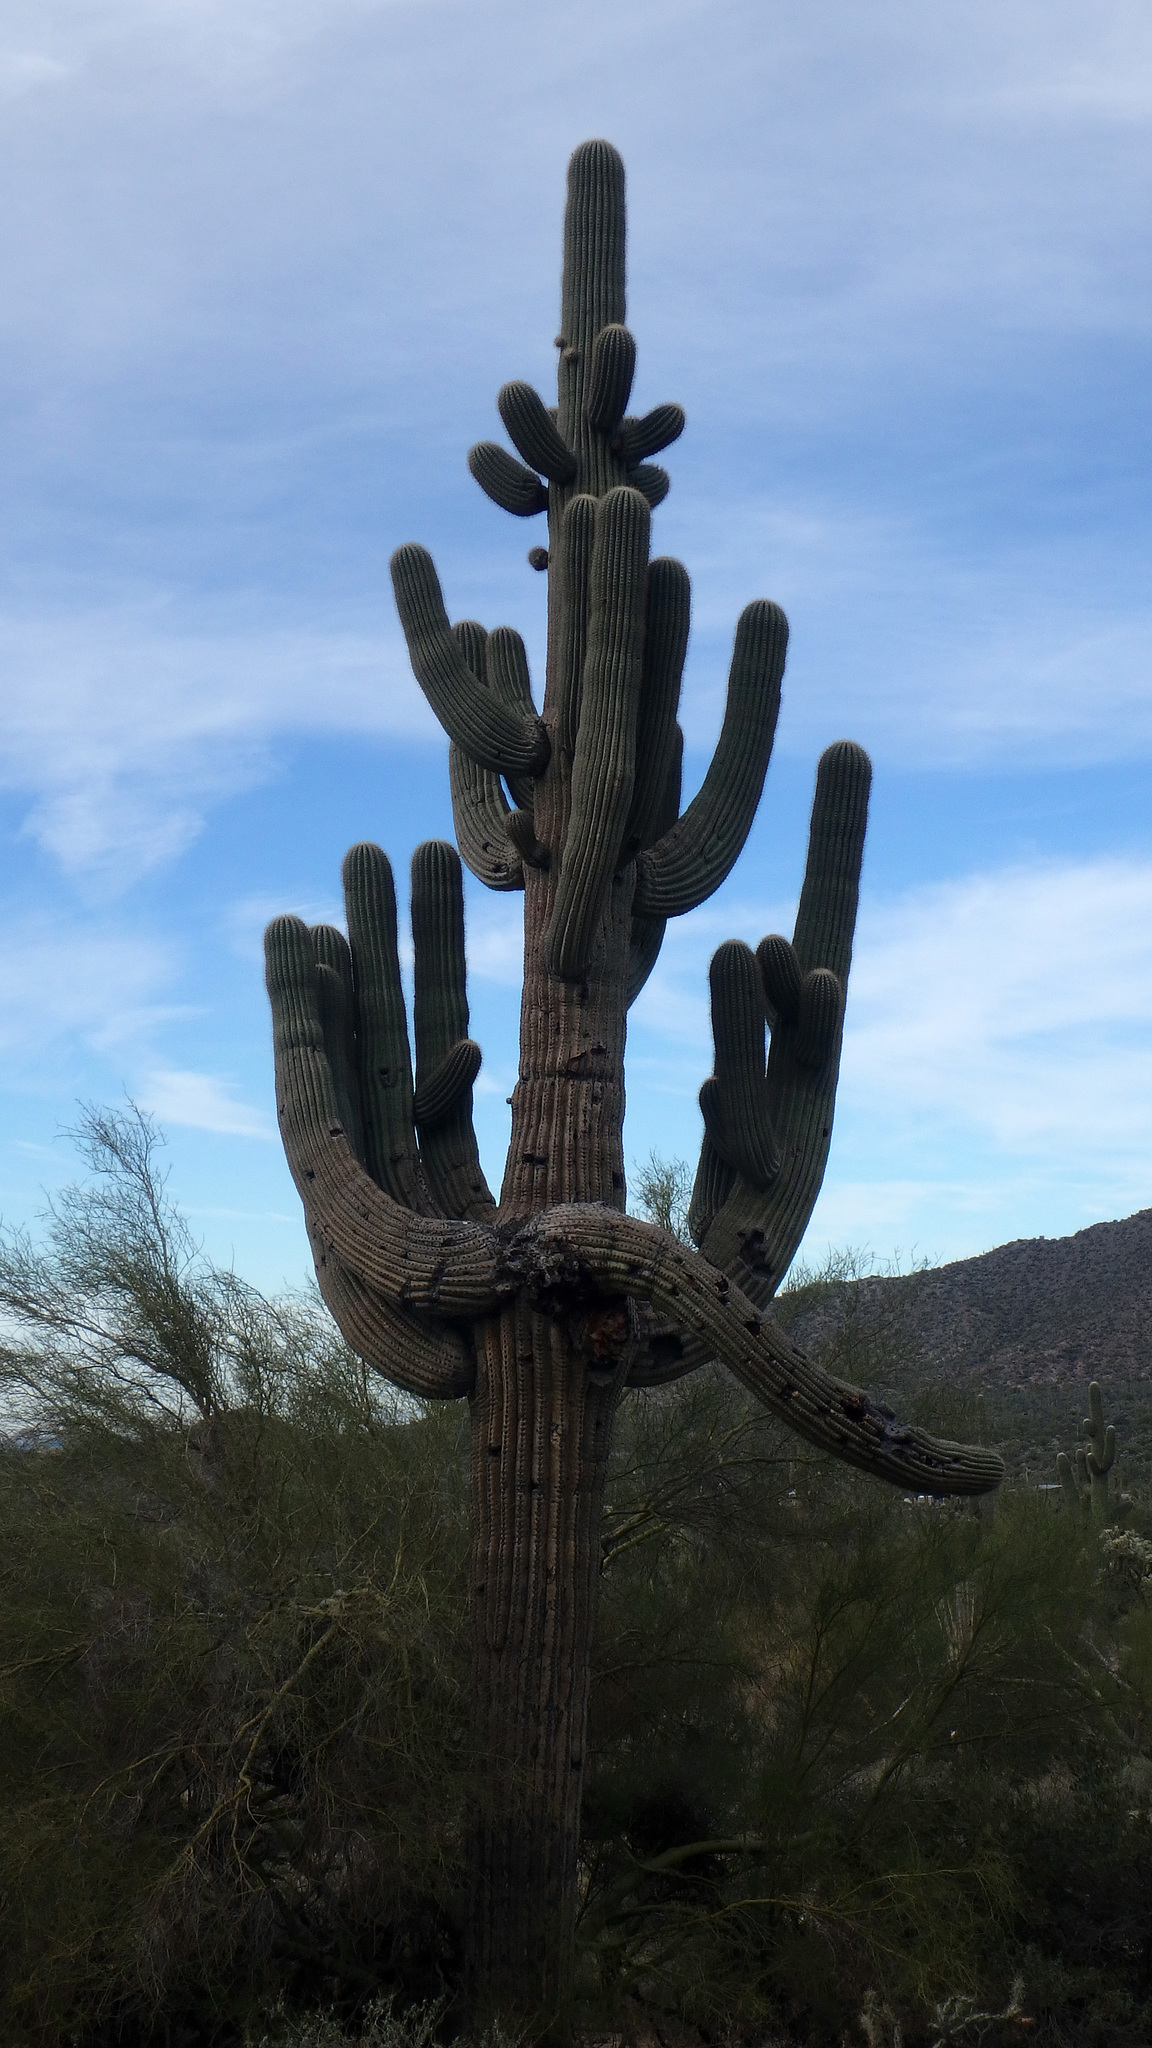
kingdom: Plantae
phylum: Tracheophyta
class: Magnoliopsida
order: Caryophyllales
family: Cactaceae
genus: Carnegiea
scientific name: Carnegiea gigantea
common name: Saguaro
